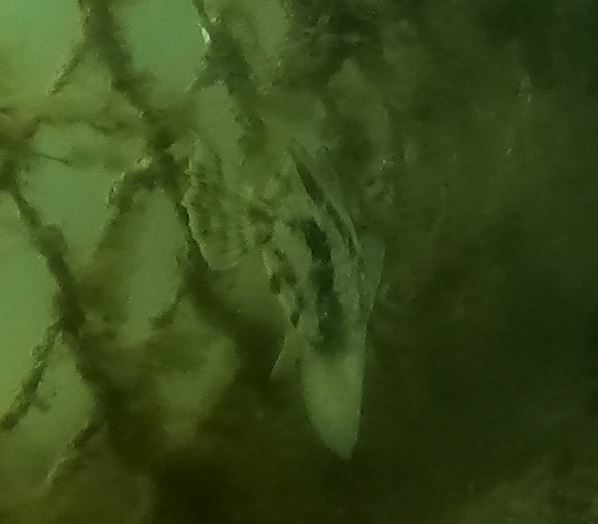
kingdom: Animalia
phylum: Chordata
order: Tetraodontiformes
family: Monacanthidae
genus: Monacanthus
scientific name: Monacanthus chinensis
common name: Centreboard leatherjacket
